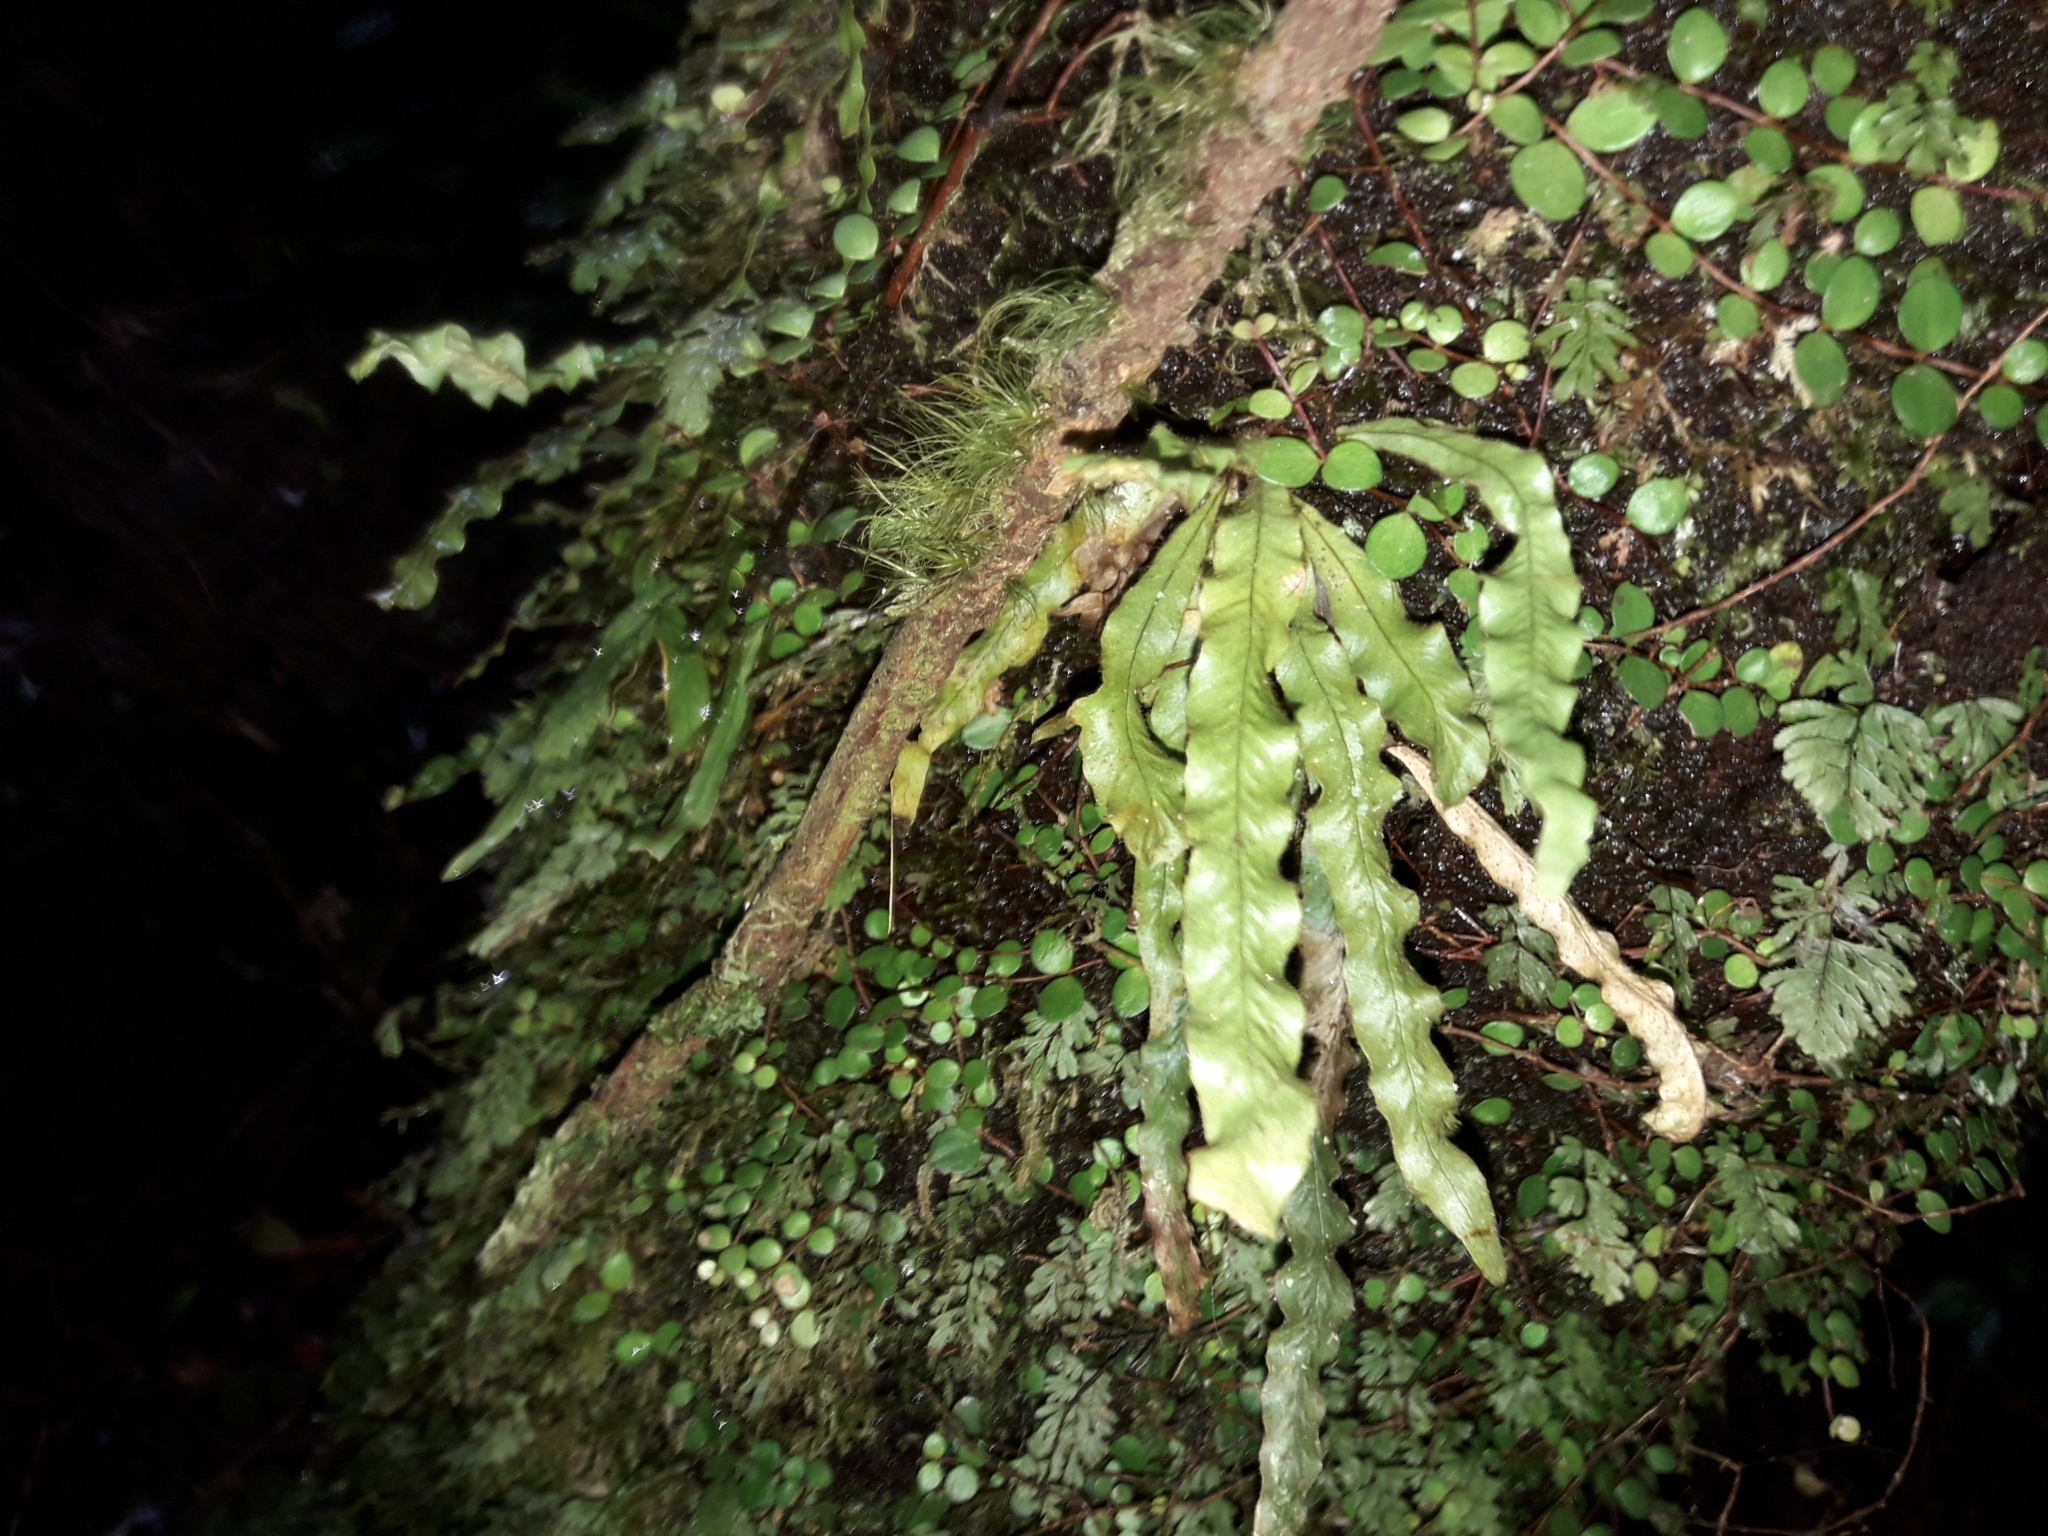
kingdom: Plantae
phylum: Tracheophyta
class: Polypodiopsida
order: Polypodiales
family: Polypodiaceae
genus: Notogrammitis
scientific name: Notogrammitis pseudociliata
